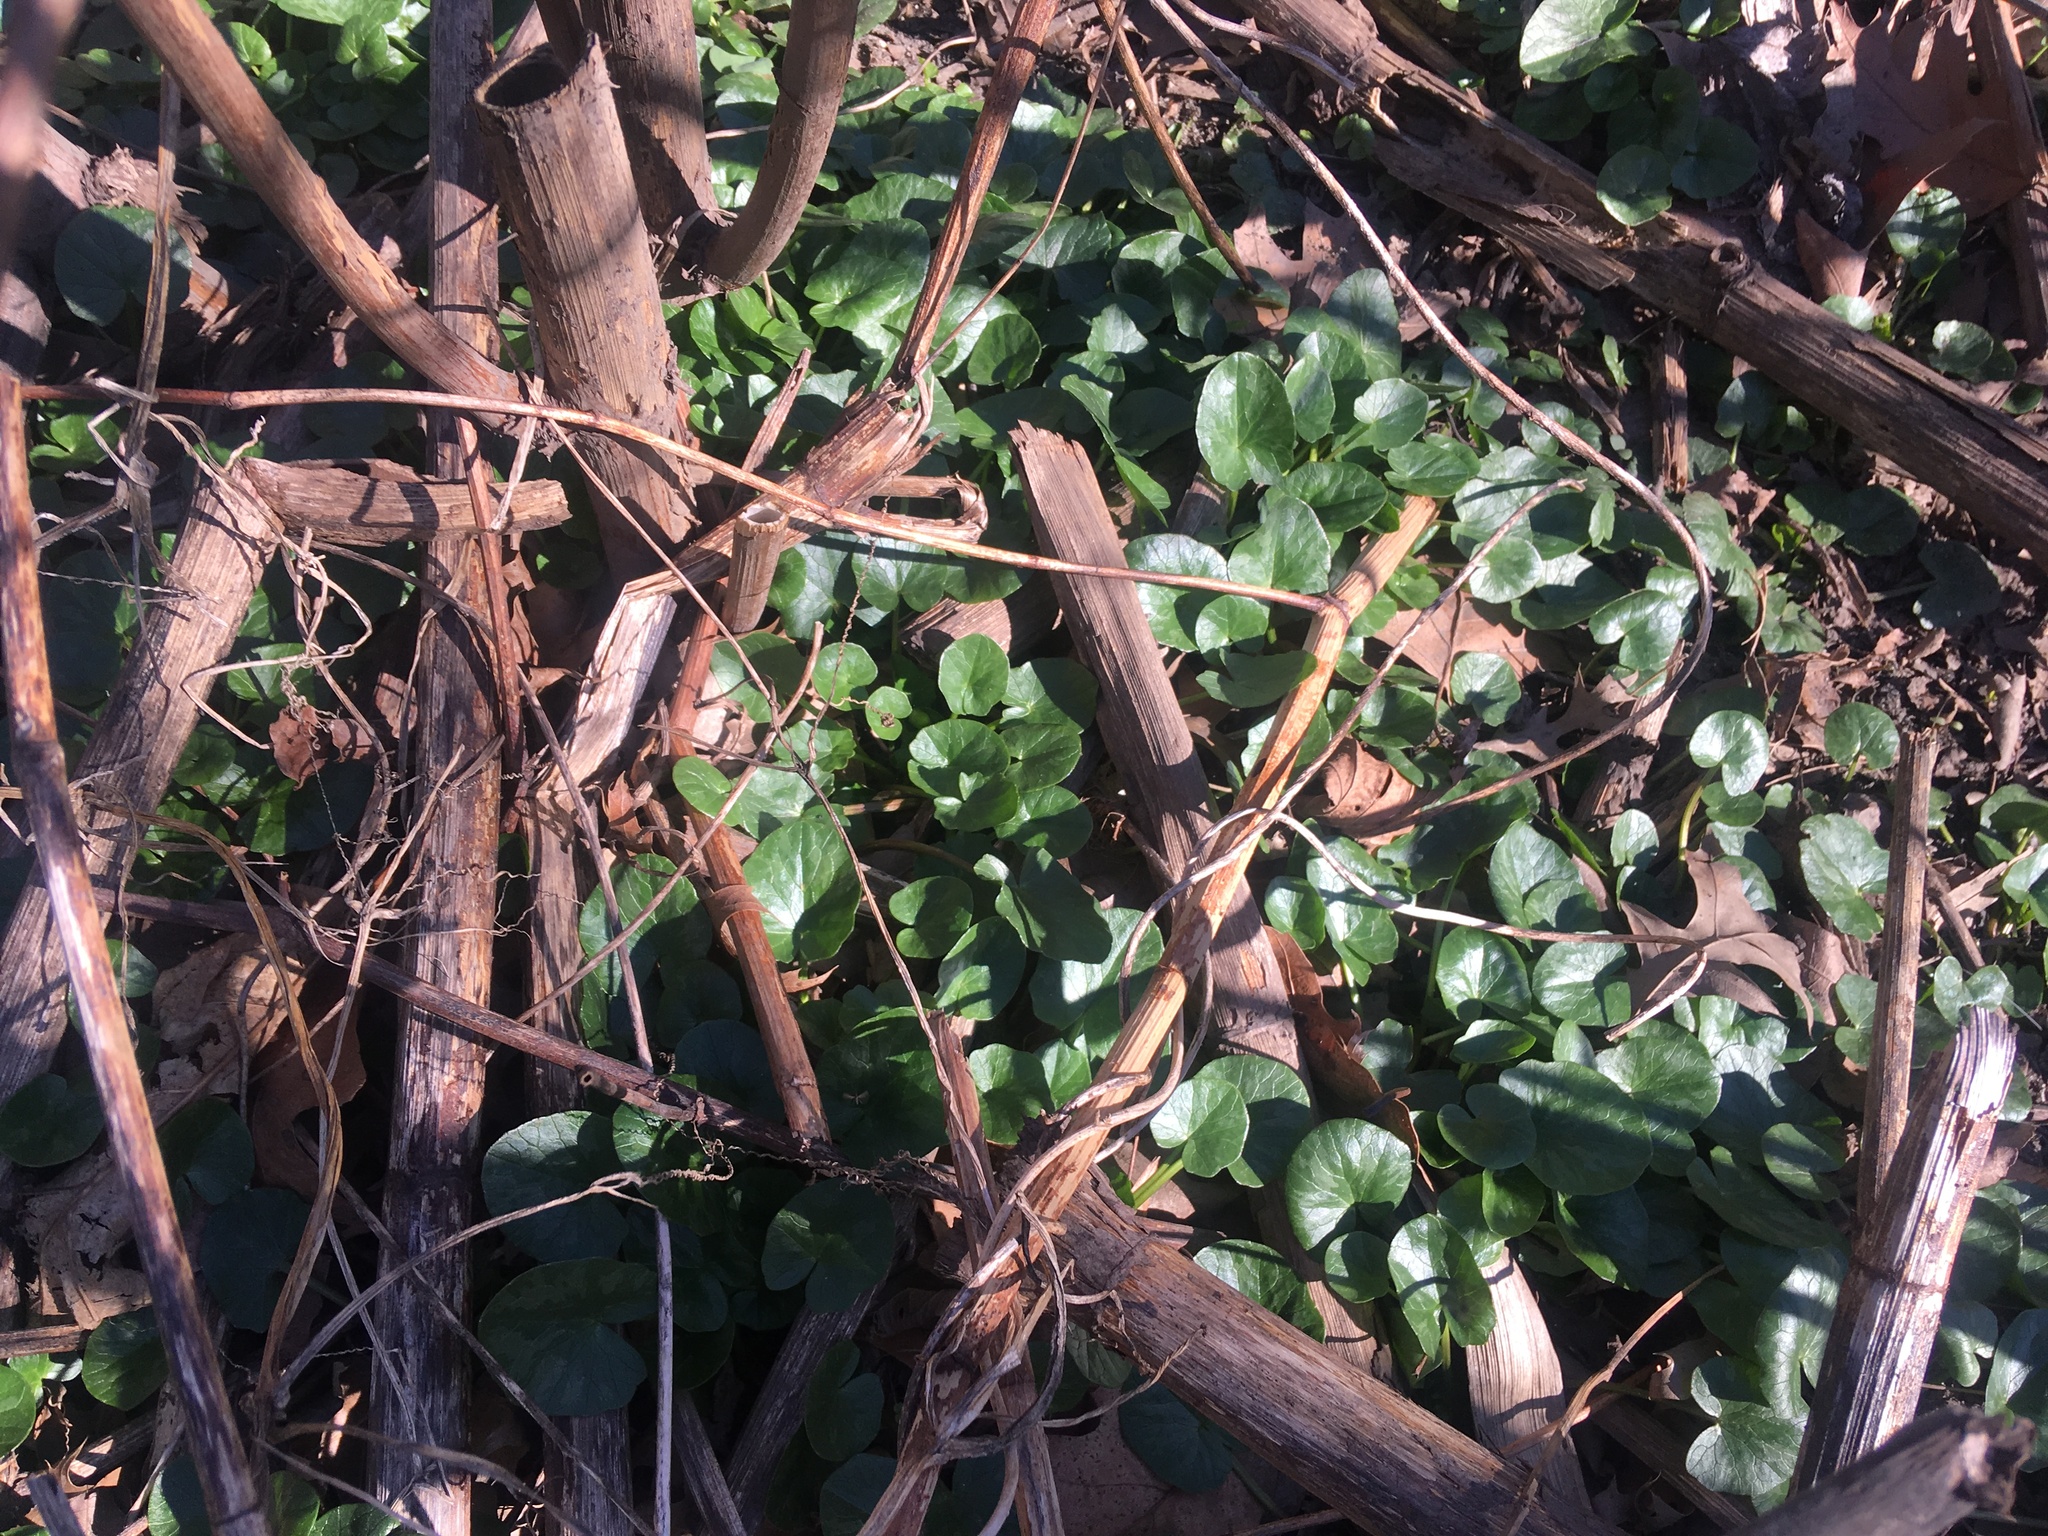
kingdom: Plantae
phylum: Tracheophyta
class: Magnoliopsida
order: Ranunculales
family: Ranunculaceae
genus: Ficaria
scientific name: Ficaria verna
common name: Lesser celandine
